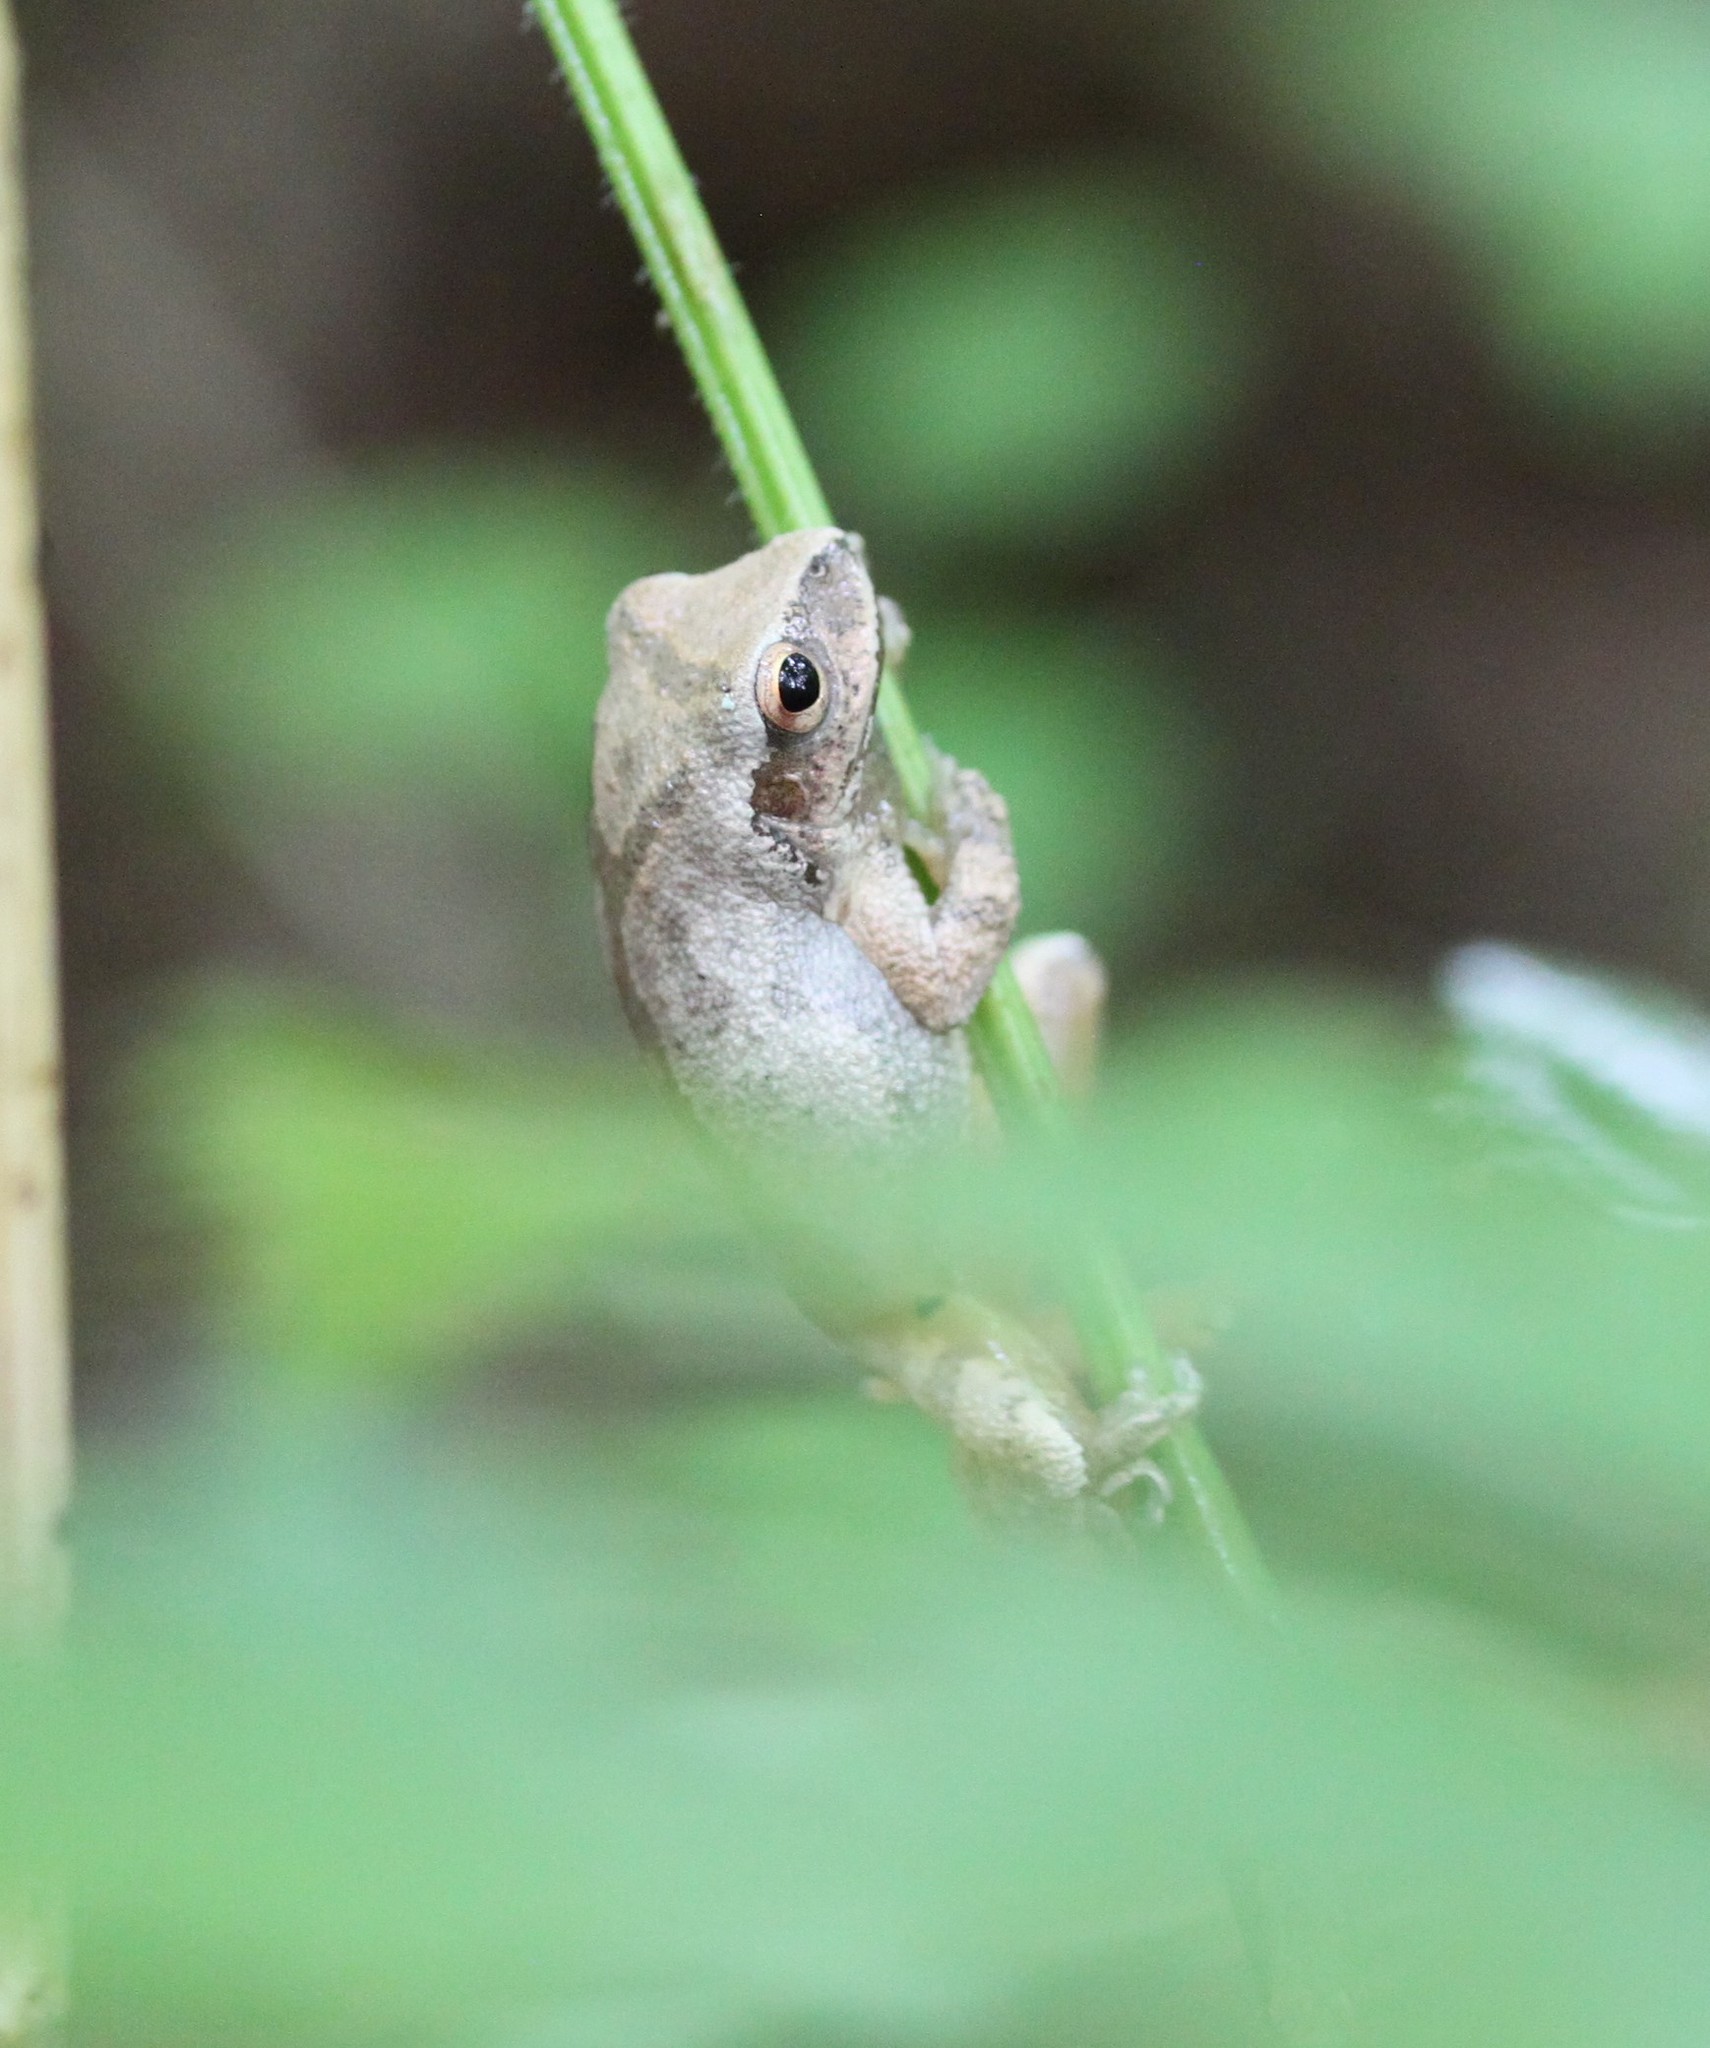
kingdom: Animalia
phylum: Chordata
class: Amphibia
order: Anura
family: Hylidae
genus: Pseudacris
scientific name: Pseudacris crucifer
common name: Spring peeper
